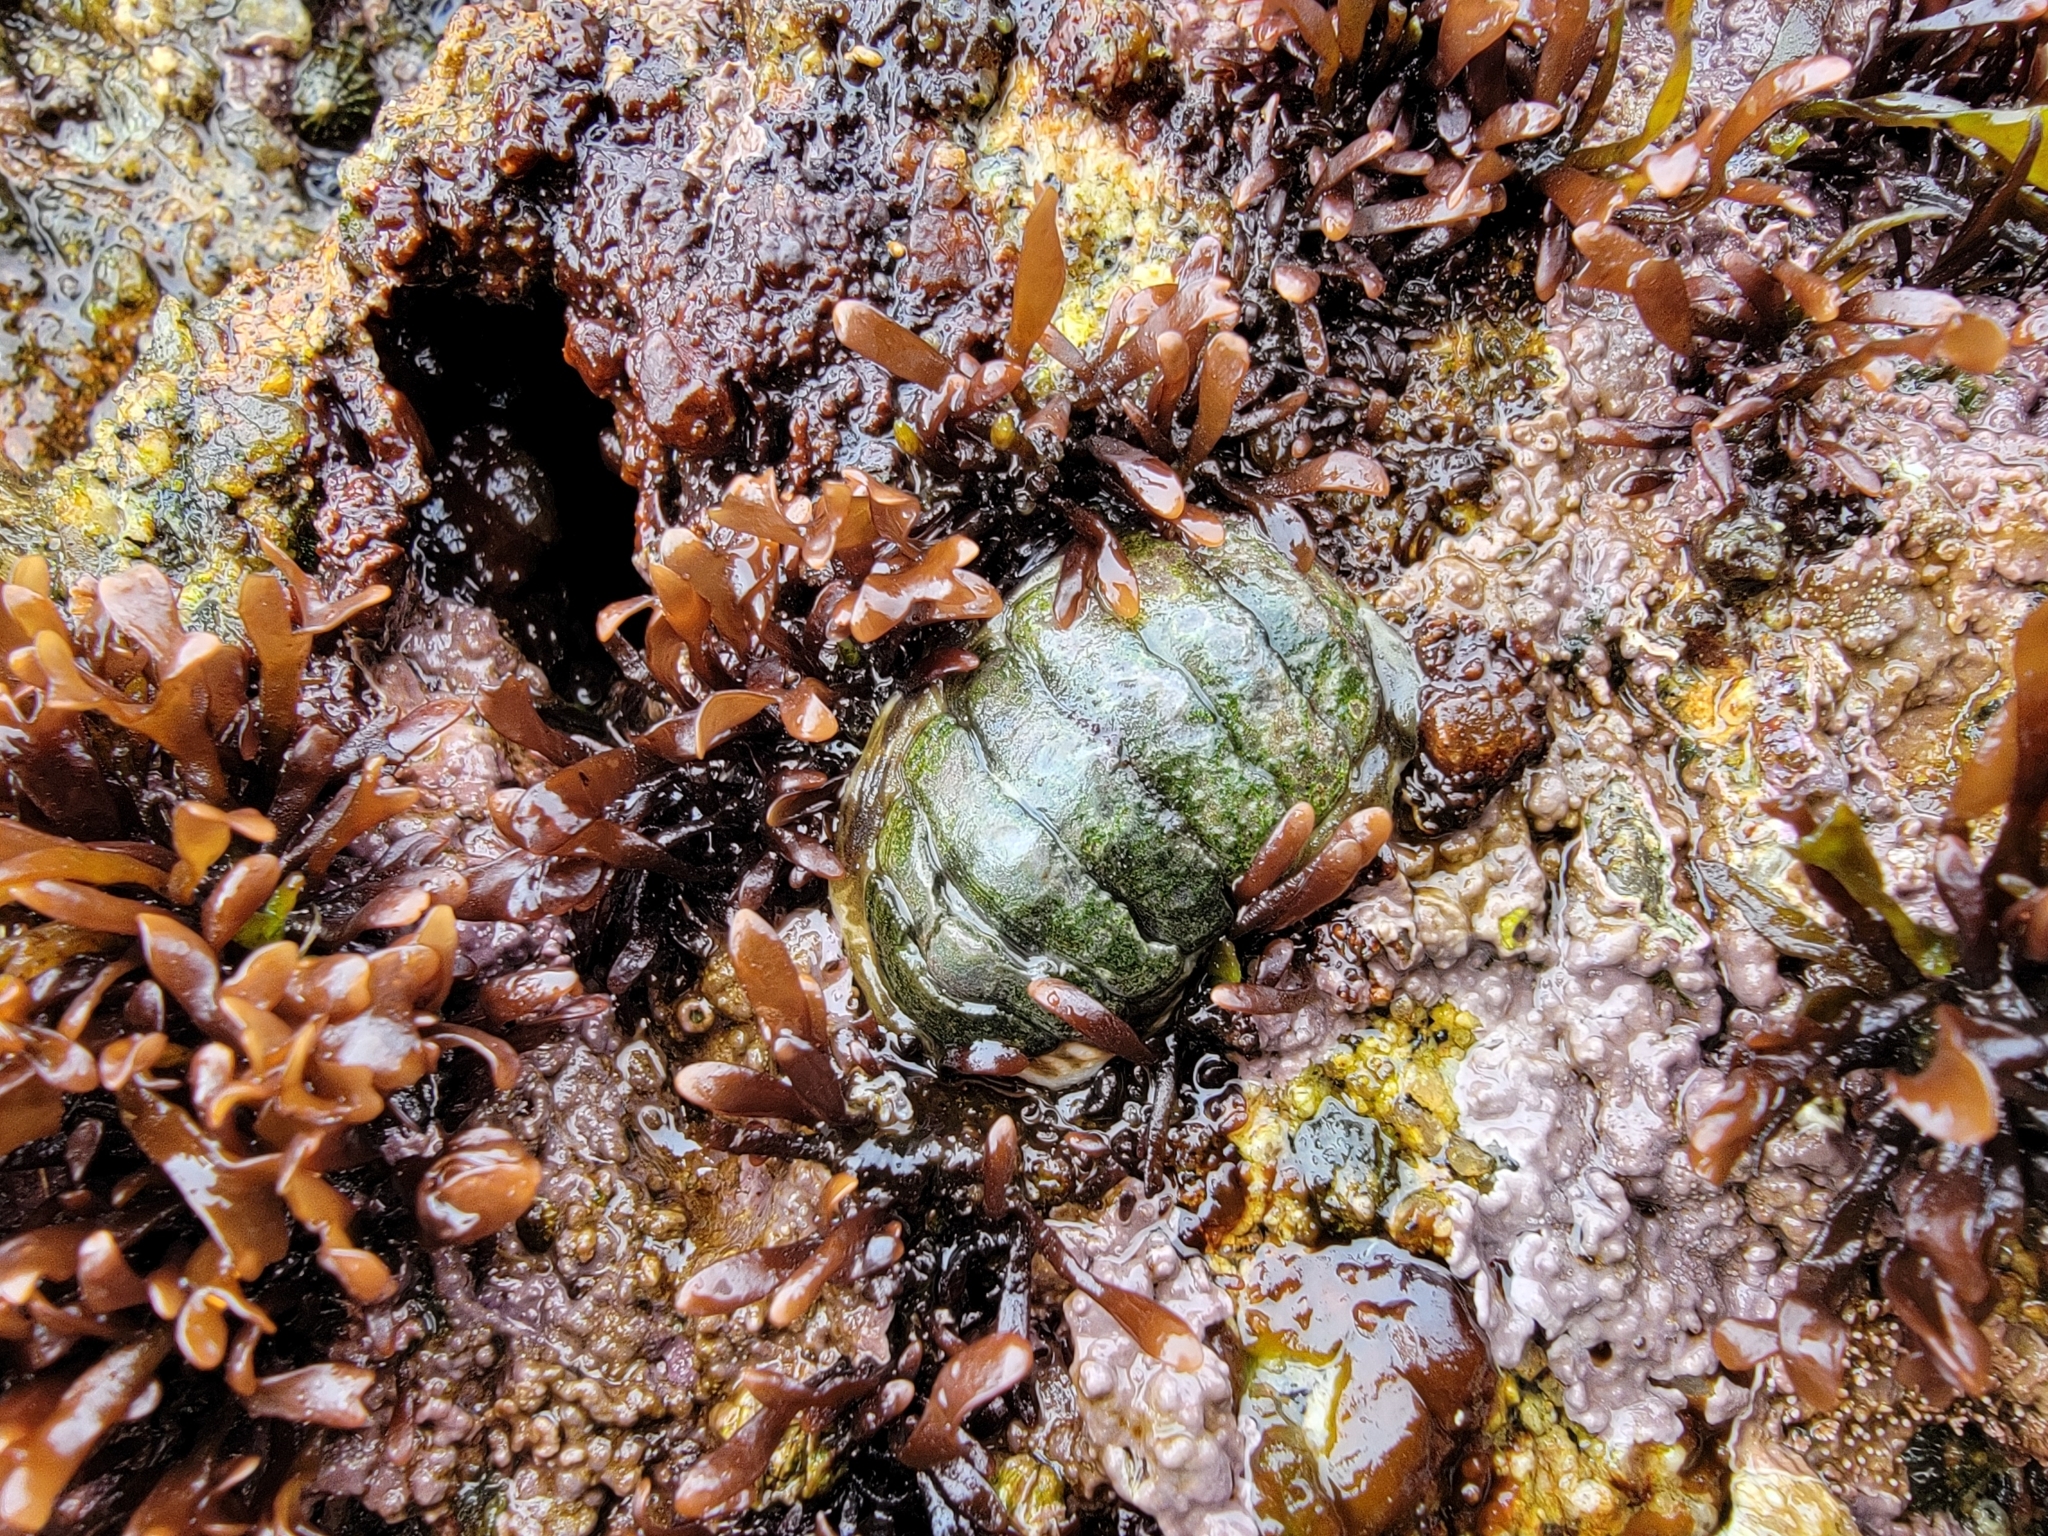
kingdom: Animalia
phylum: Mollusca
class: Polyplacophora
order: Chitonida
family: Tonicellidae
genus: Cyanoplax
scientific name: Cyanoplax hartwegii
